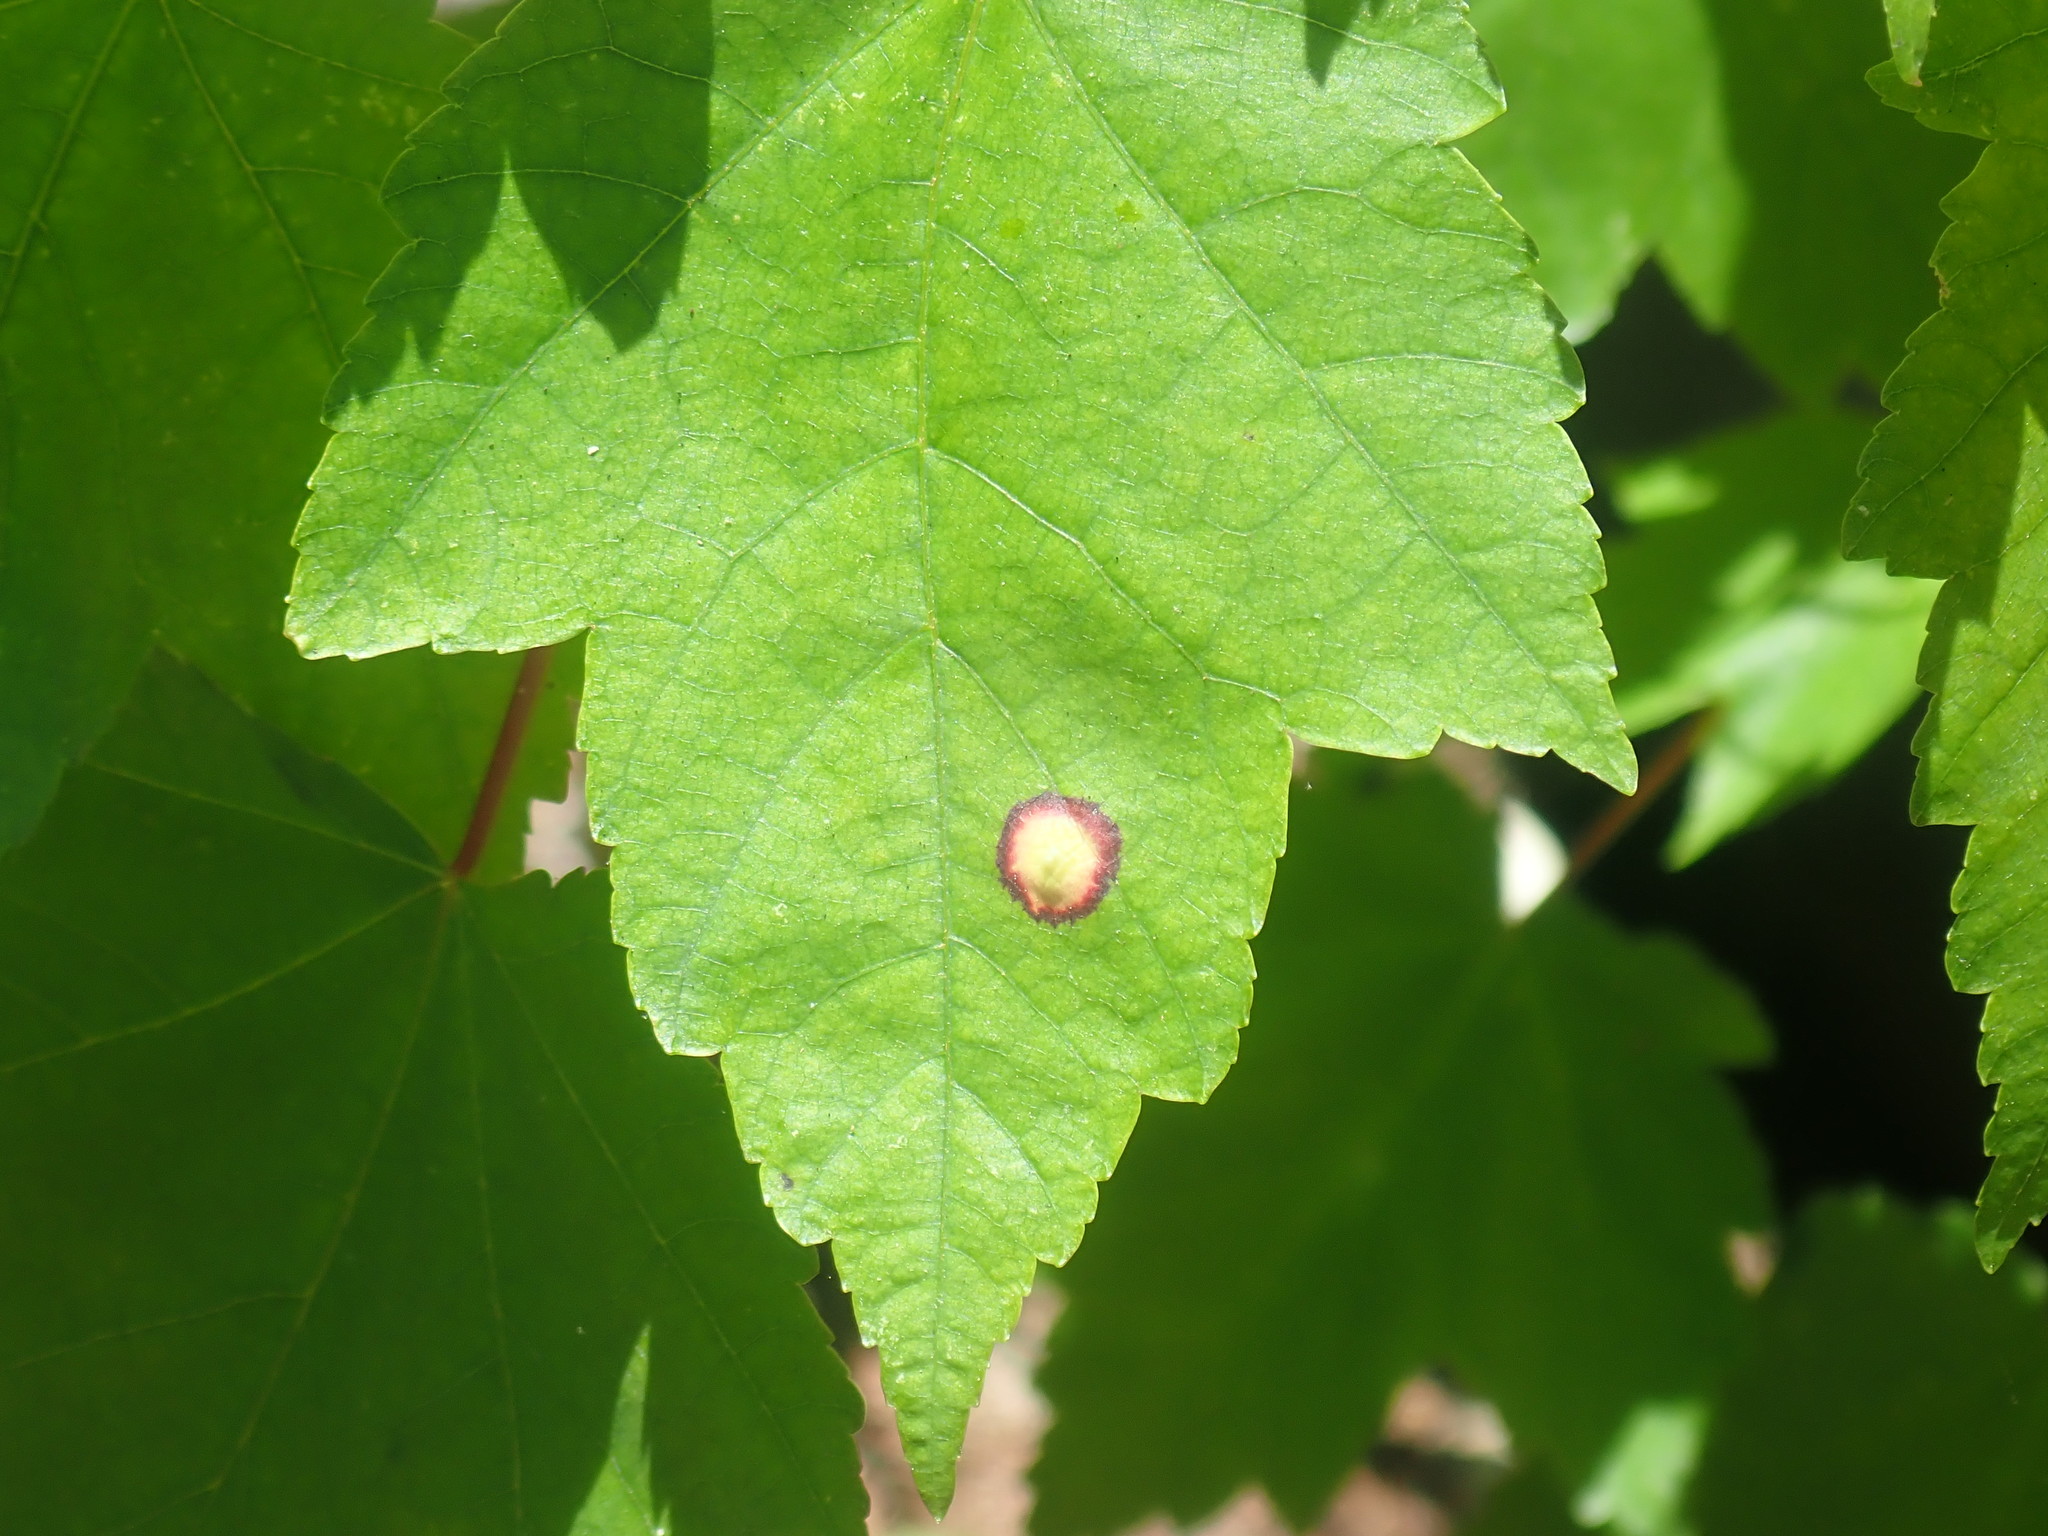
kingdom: Animalia
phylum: Arthropoda
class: Insecta
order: Diptera
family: Cecidomyiidae
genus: Acericecis
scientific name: Acericecis ocellaris
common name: Ocellate gall midge
